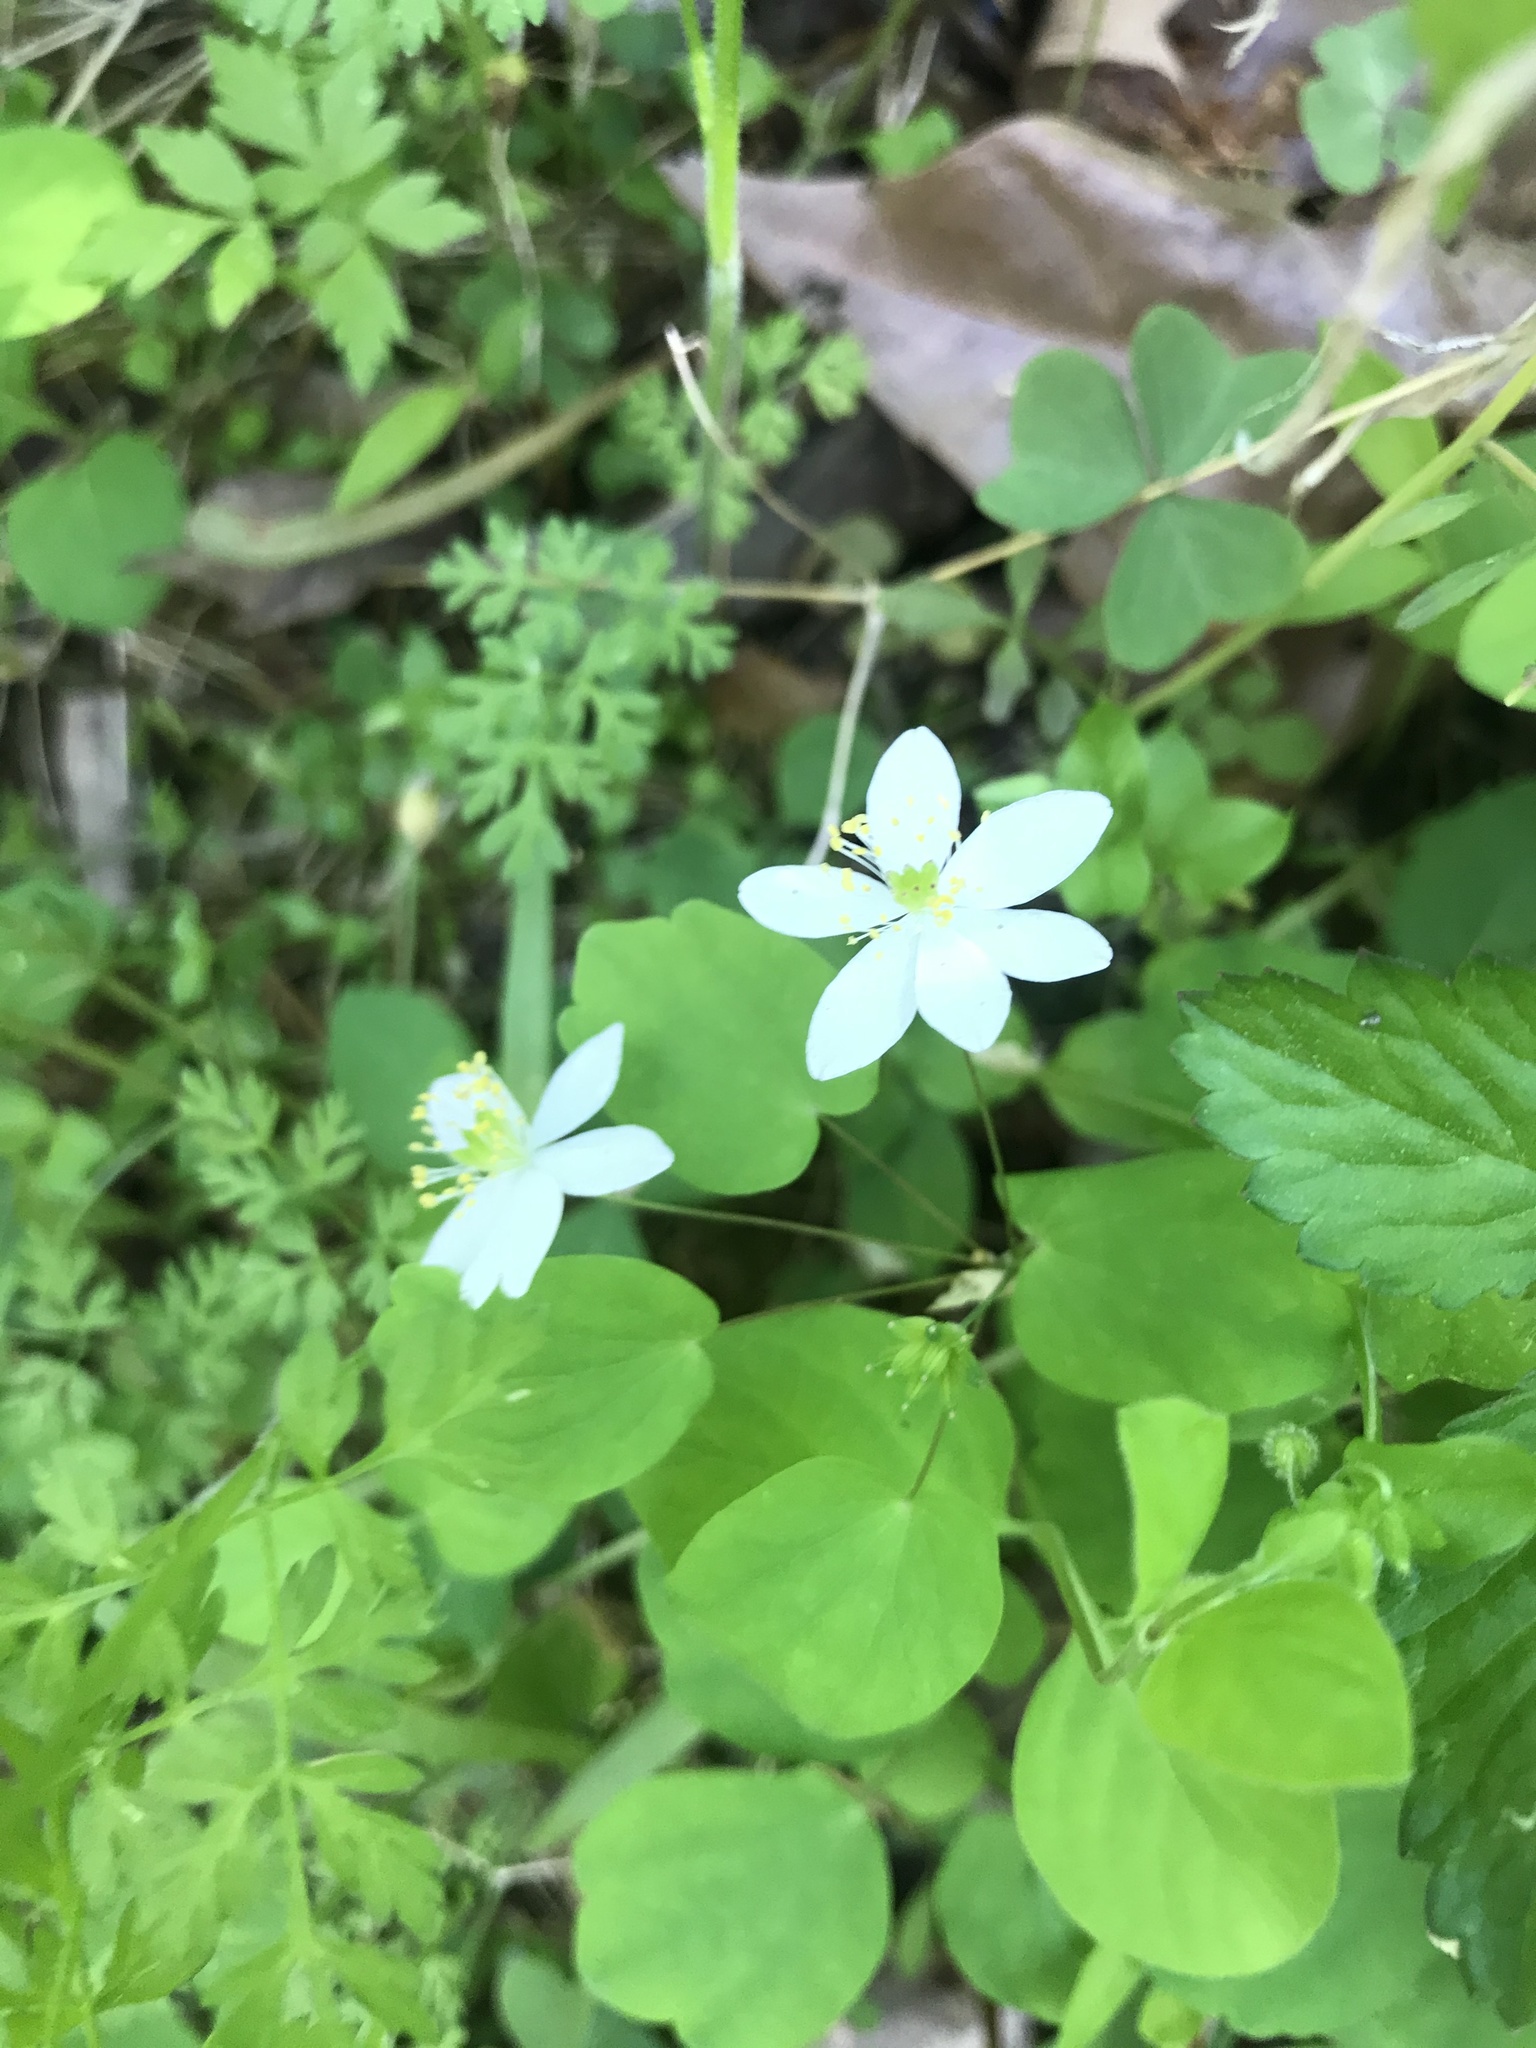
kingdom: Plantae
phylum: Tracheophyta
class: Magnoliopsida
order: Ranunculales
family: Ranunculaceae
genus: Thalictrum
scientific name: Thalictrum thalictroides
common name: Rue-anemone
